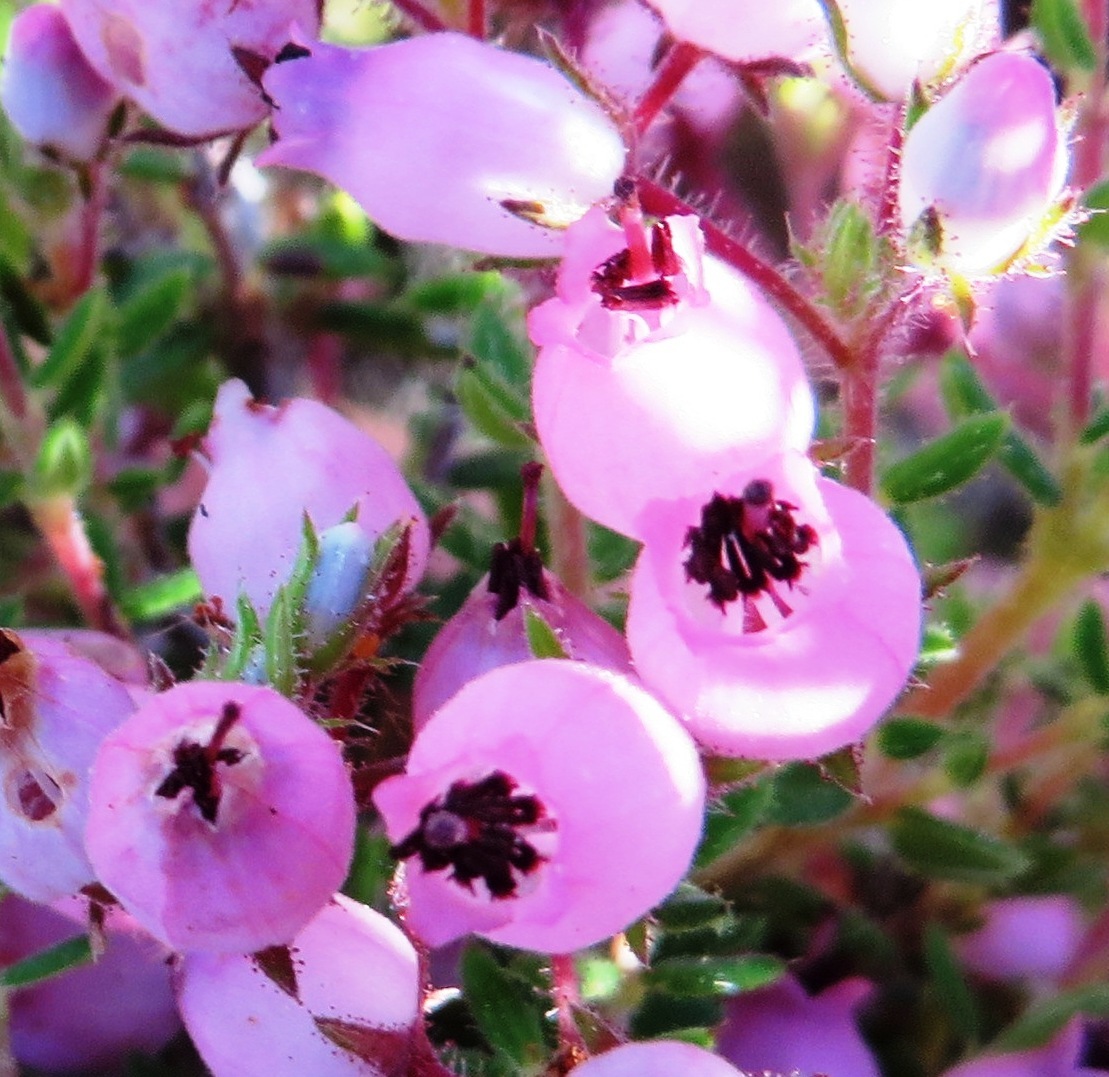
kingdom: Plantae
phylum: Tracheophyta
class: Magnoliopsida
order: Ericales
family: Ericaceae
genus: Erica
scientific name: Erica hirta
